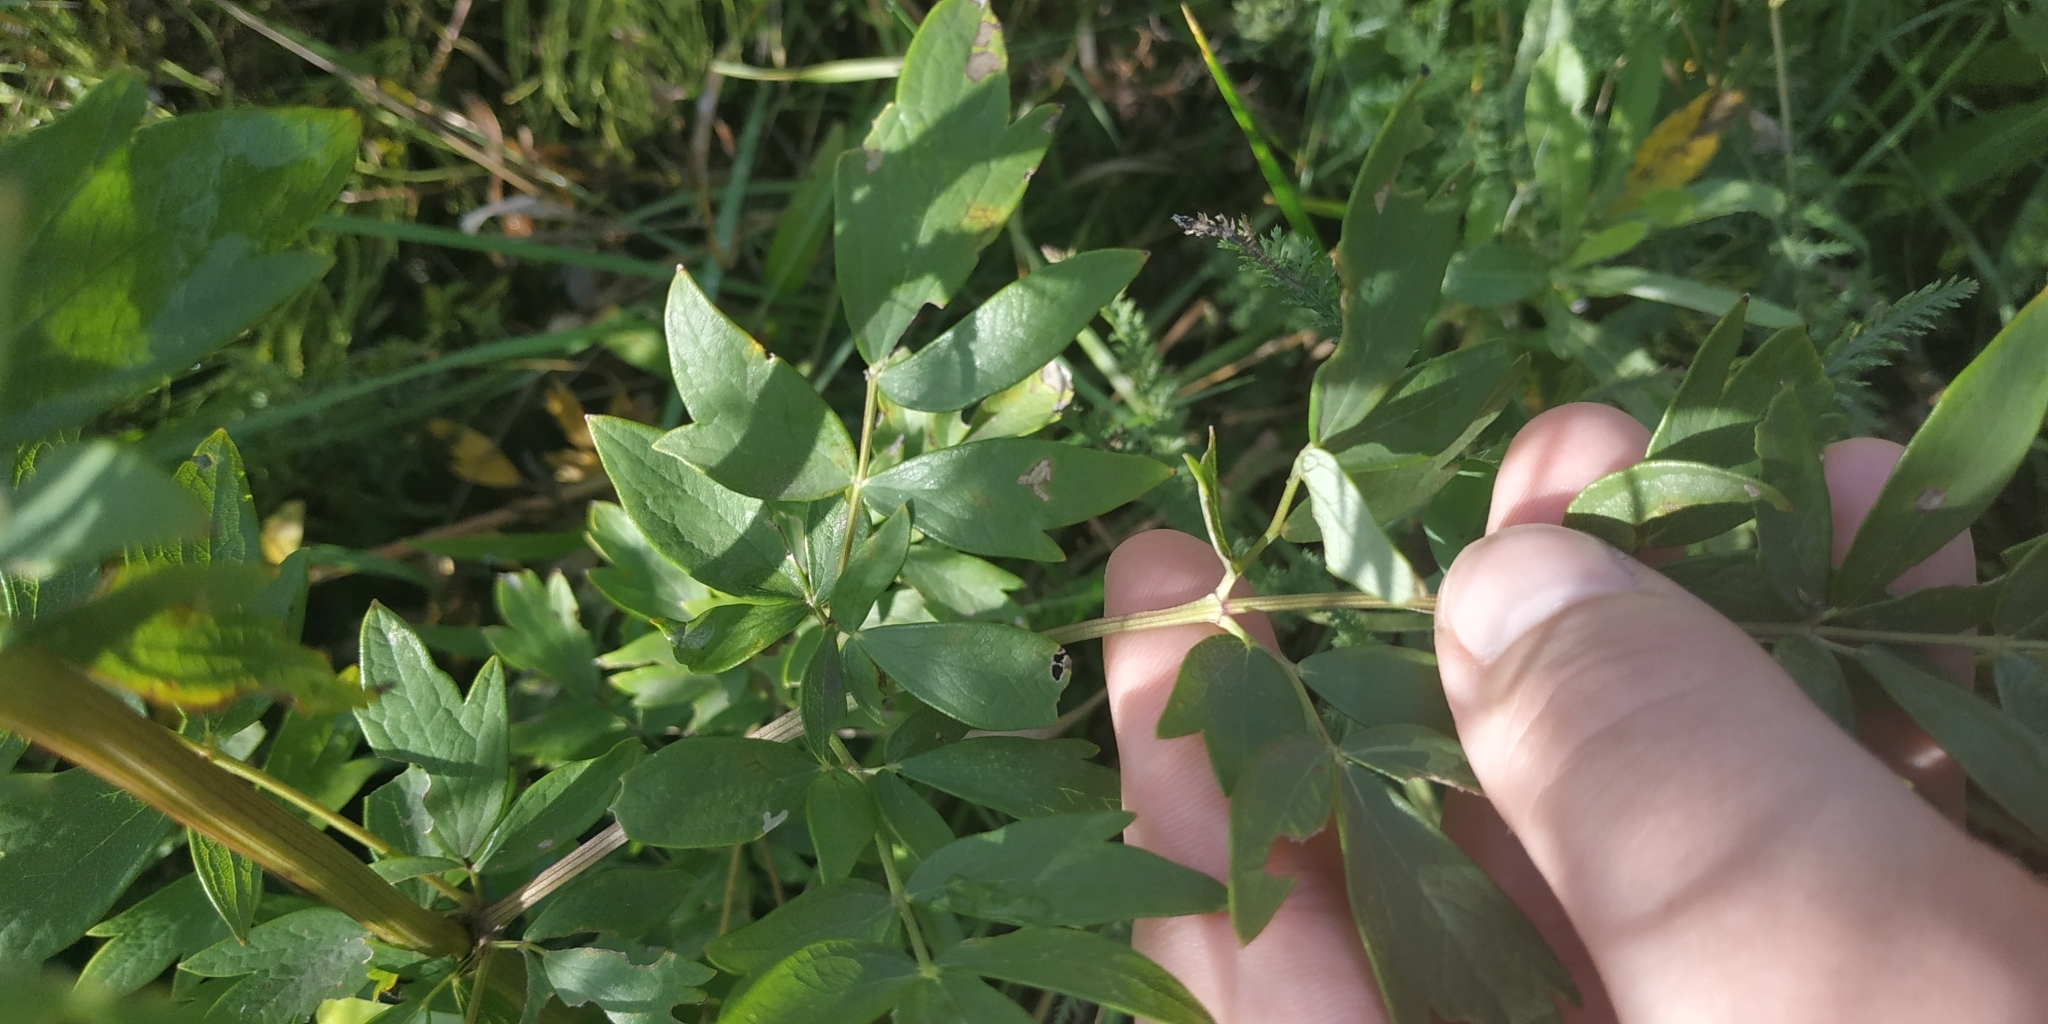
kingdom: Plantae
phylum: Tracheophyta
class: Magnoliopsida
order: Ranunculales
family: Ranunculaceae
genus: Thalictrum
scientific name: Thalictrum simplex
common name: Small meadow-rue
